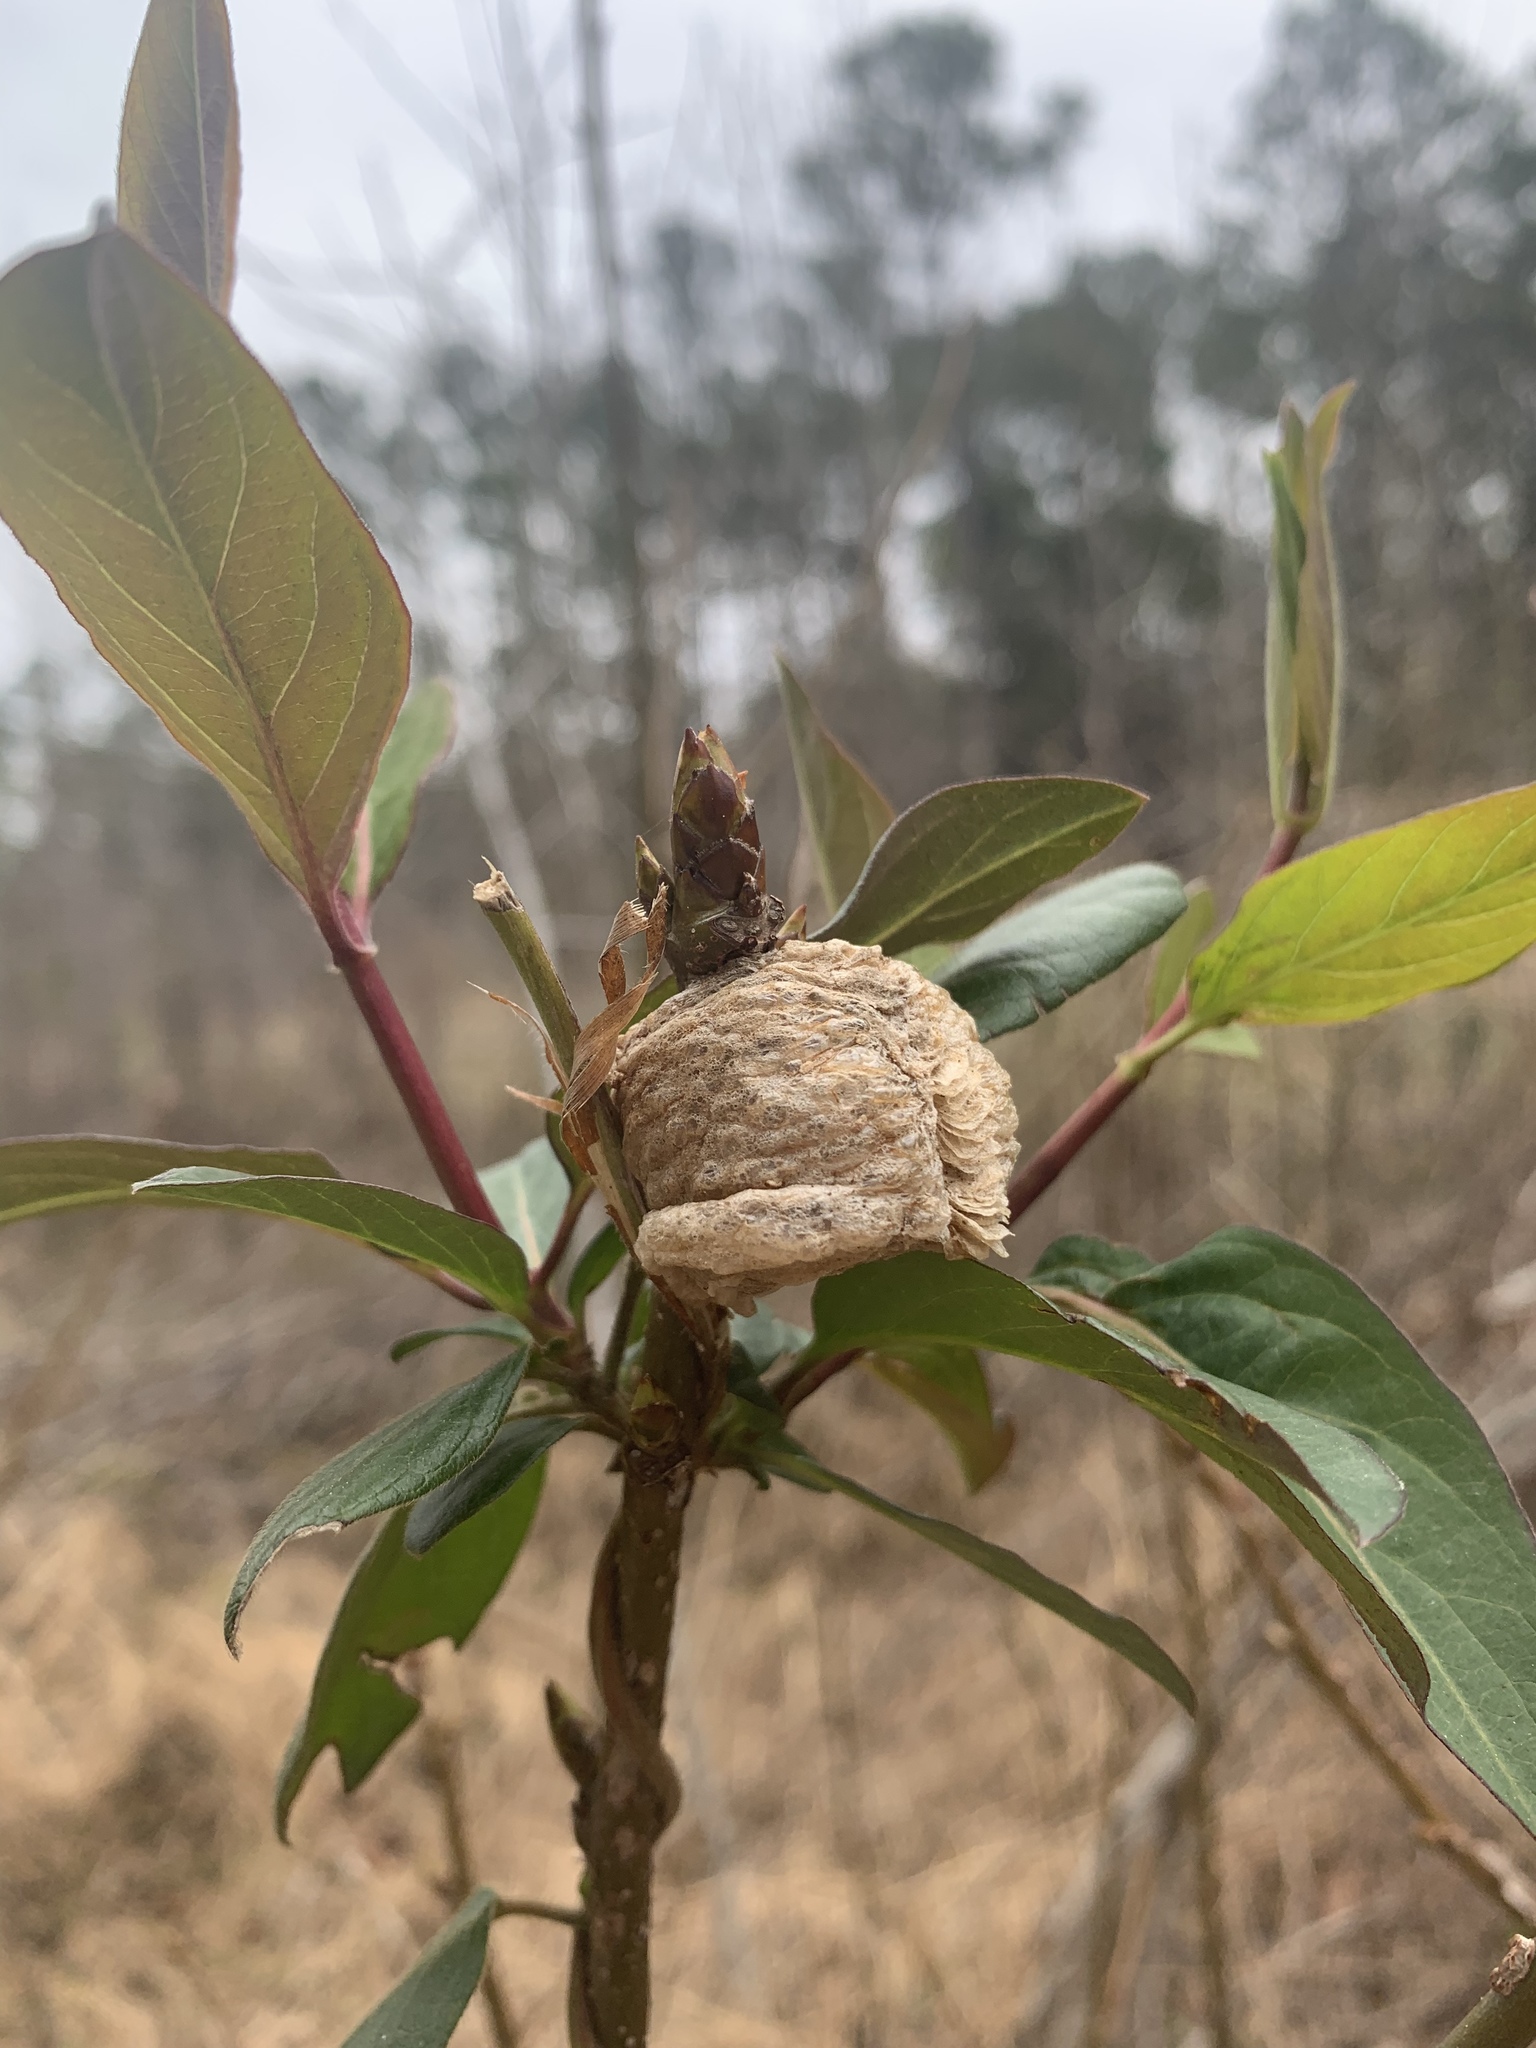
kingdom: Animalia
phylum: Arthropoda
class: Insecta
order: Mantodea
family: Mantidae
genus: Tenodera
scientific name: Tenodera sinensis
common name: Chinese mantis
